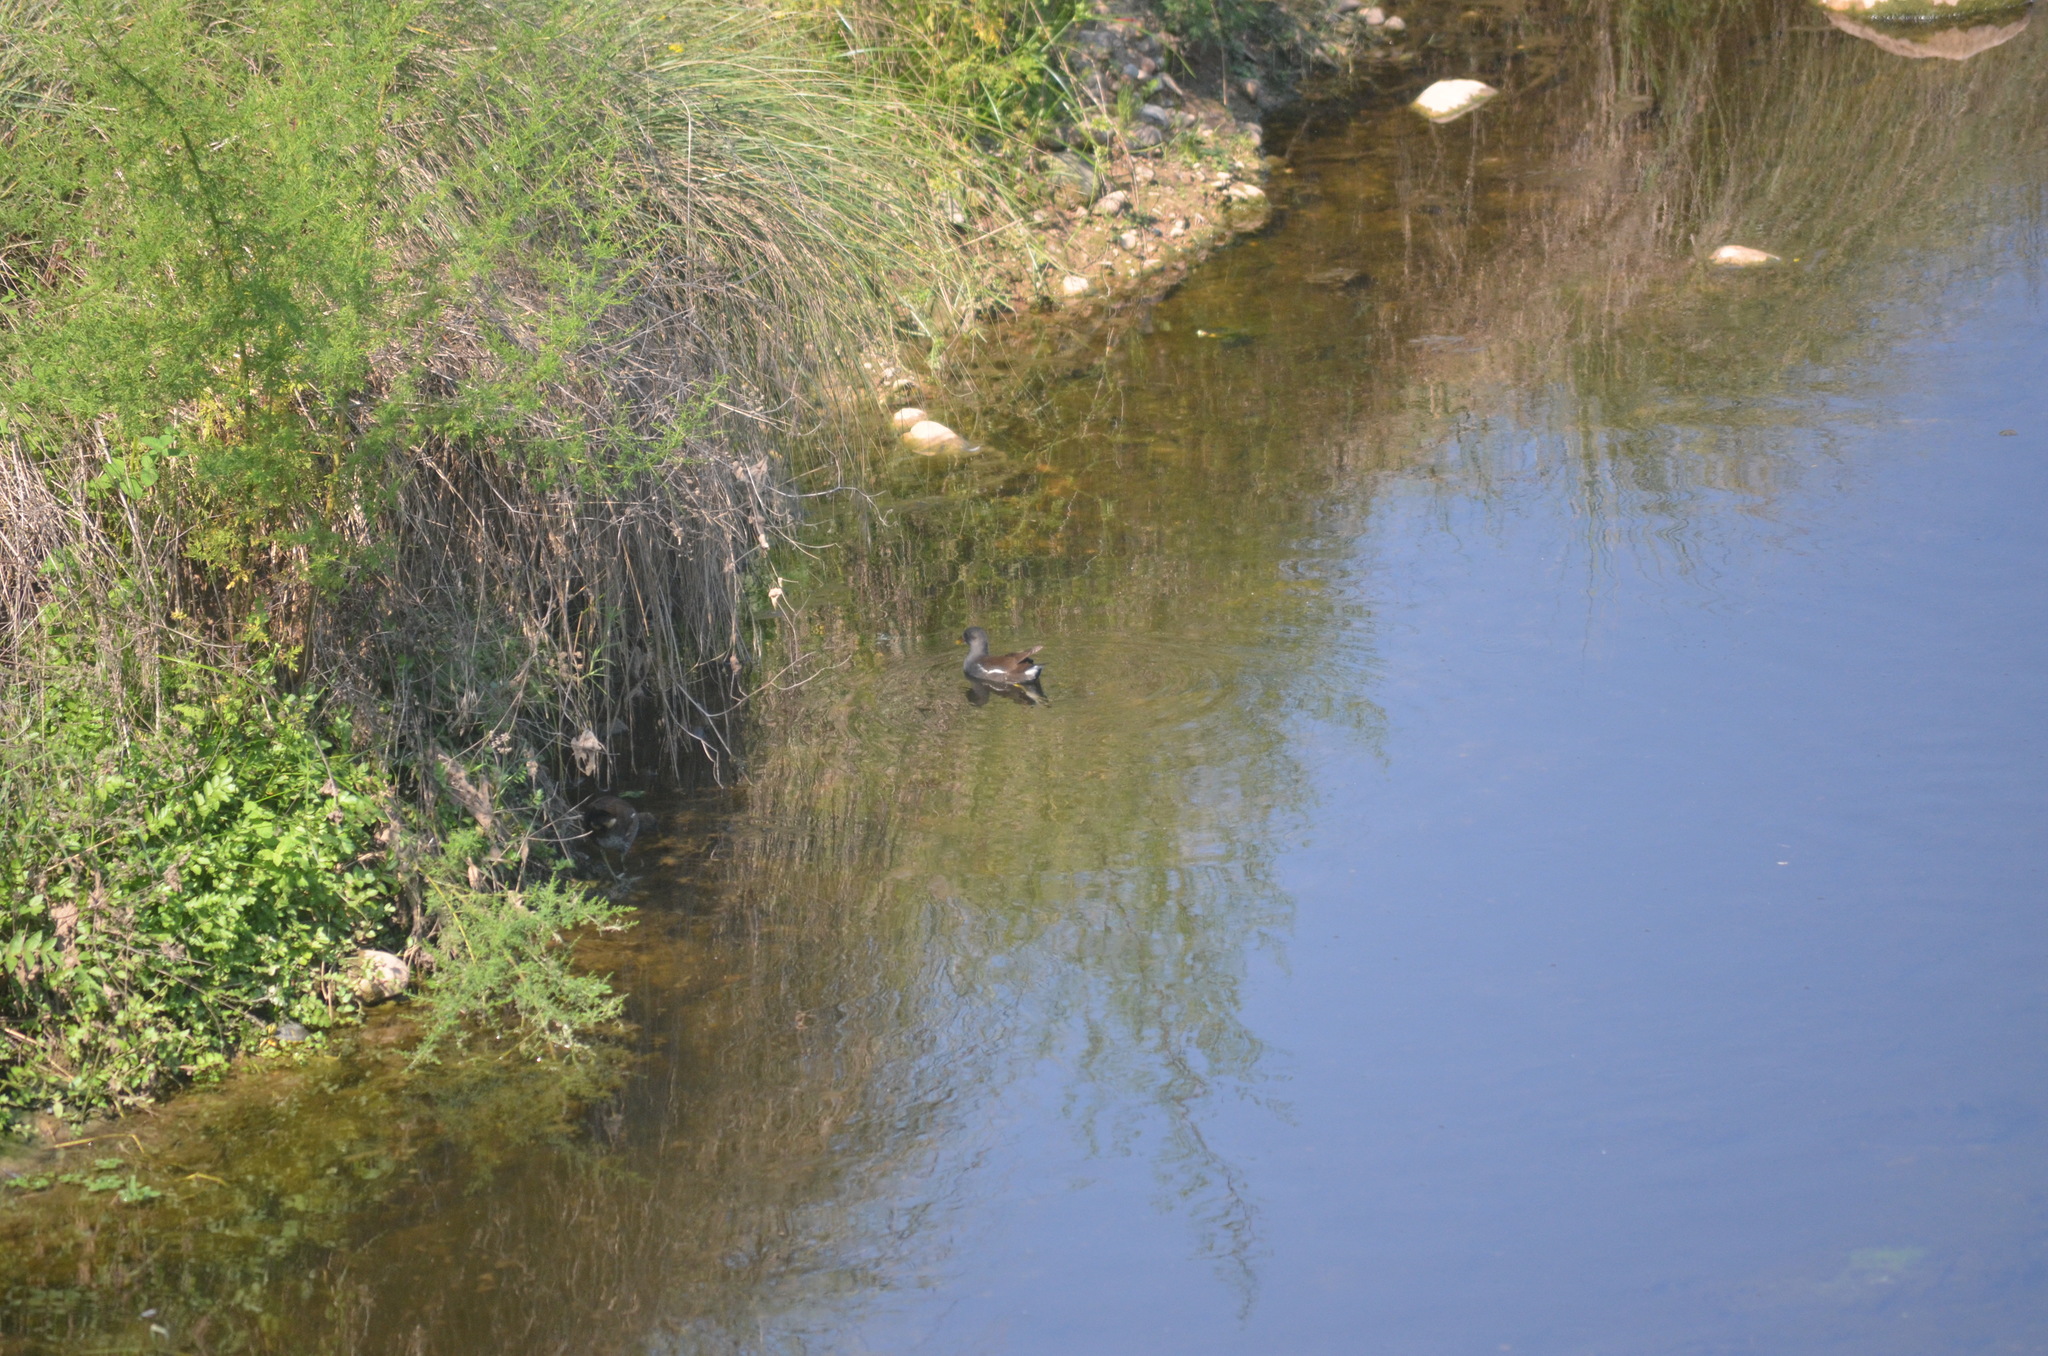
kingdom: Animalia
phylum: Chordata
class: Aves
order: Gruiformes
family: Rallidae
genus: Gallinula
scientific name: Gallinula chloropus
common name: Common moorhen
